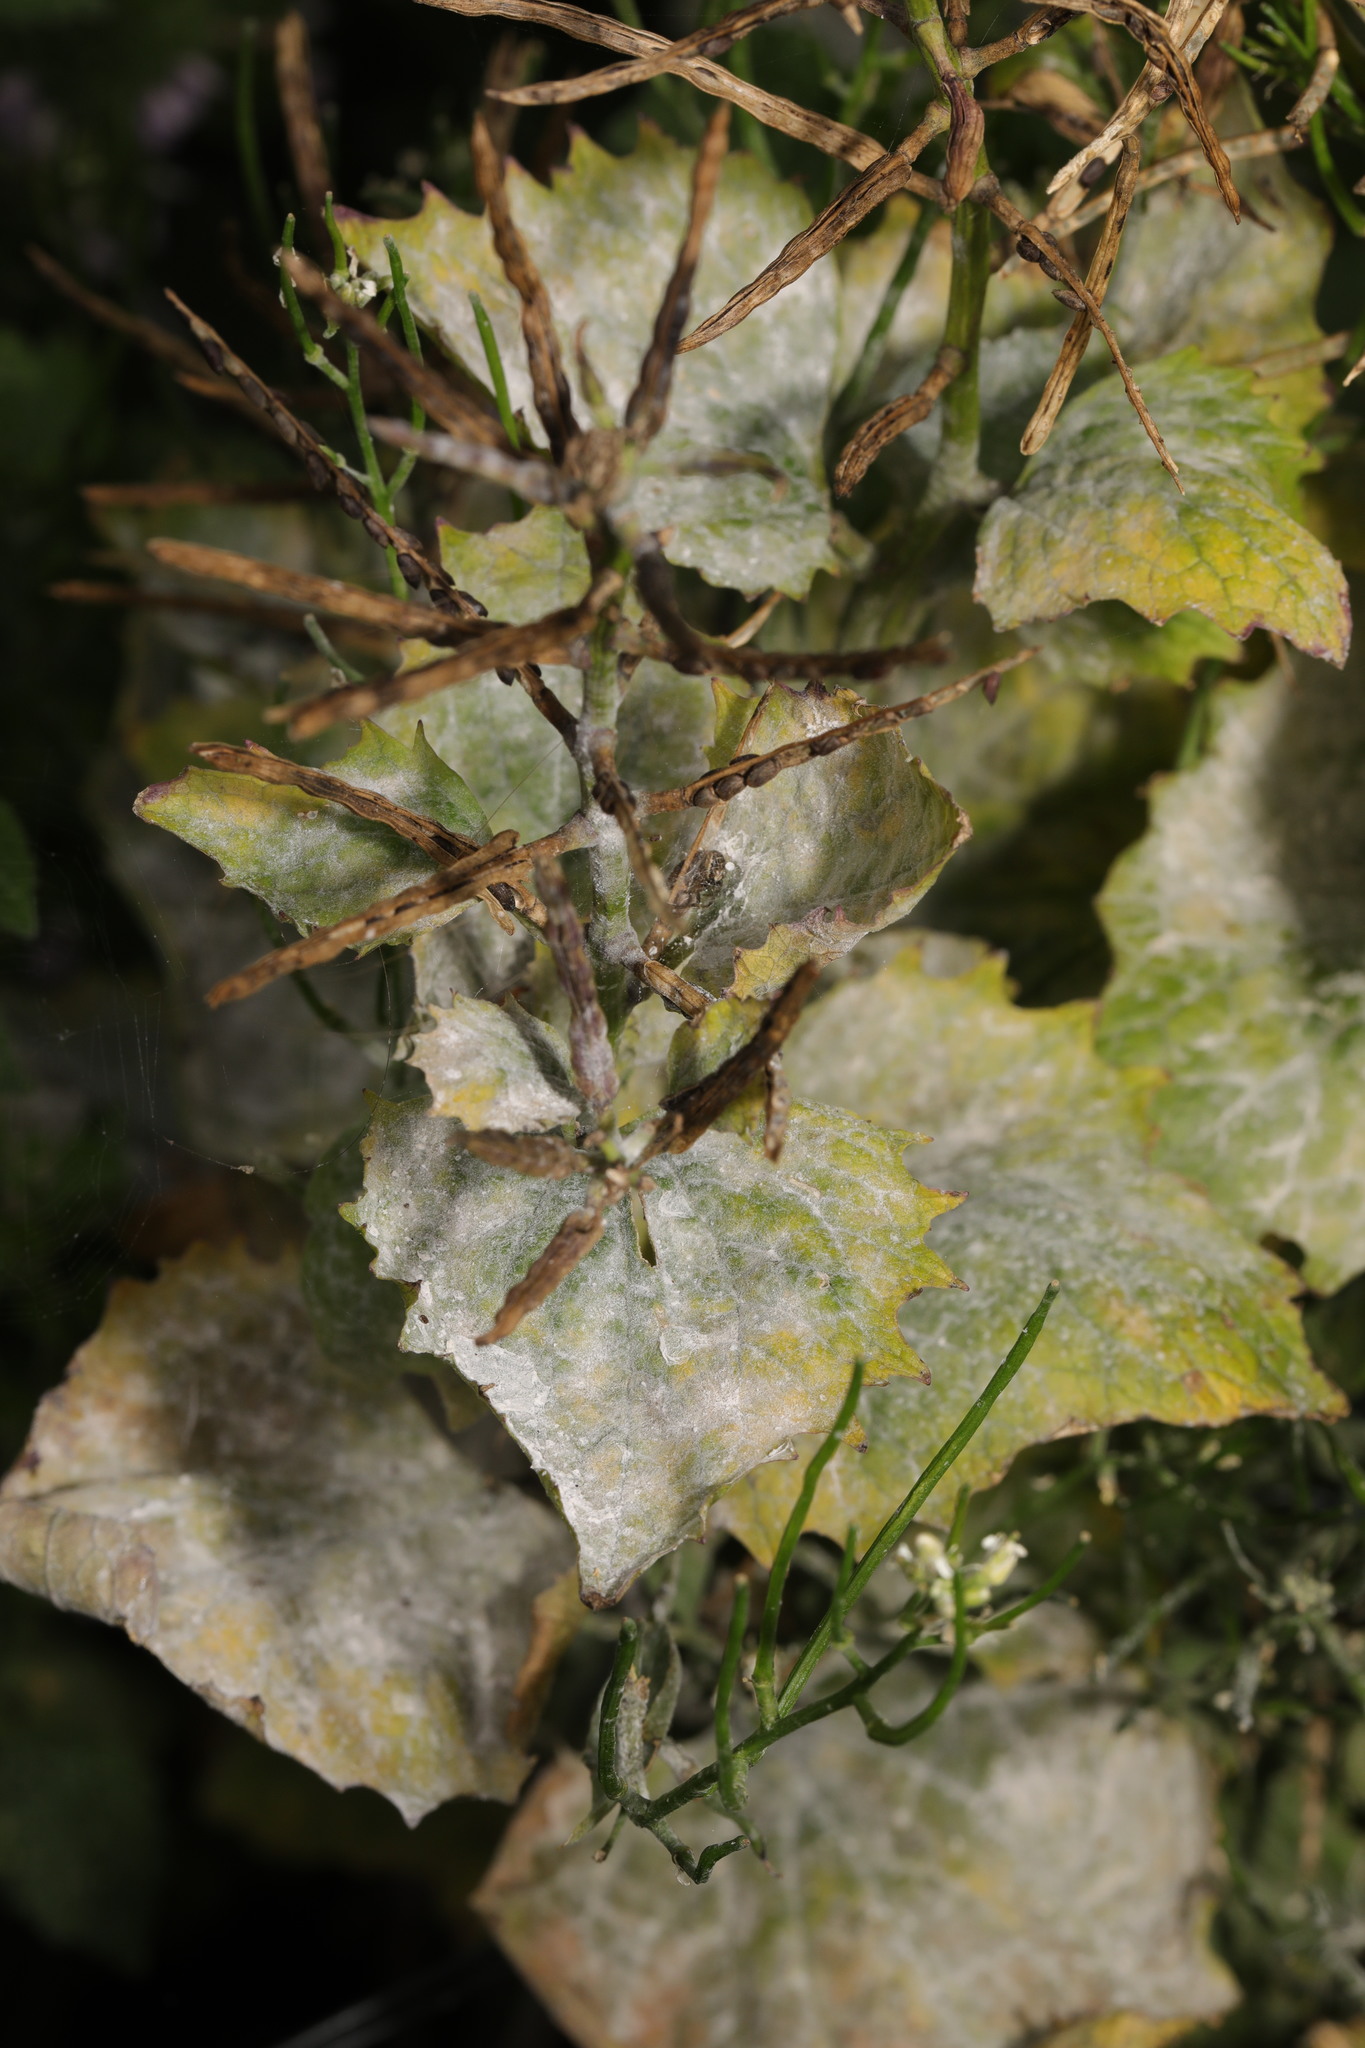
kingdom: Fungi
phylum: Ascomycota
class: Leotiomycetes
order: Helotiales
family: Erysiphaceae
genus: Erysiphe
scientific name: Erysiphe cruciferarum
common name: Brassica powdery mildew
